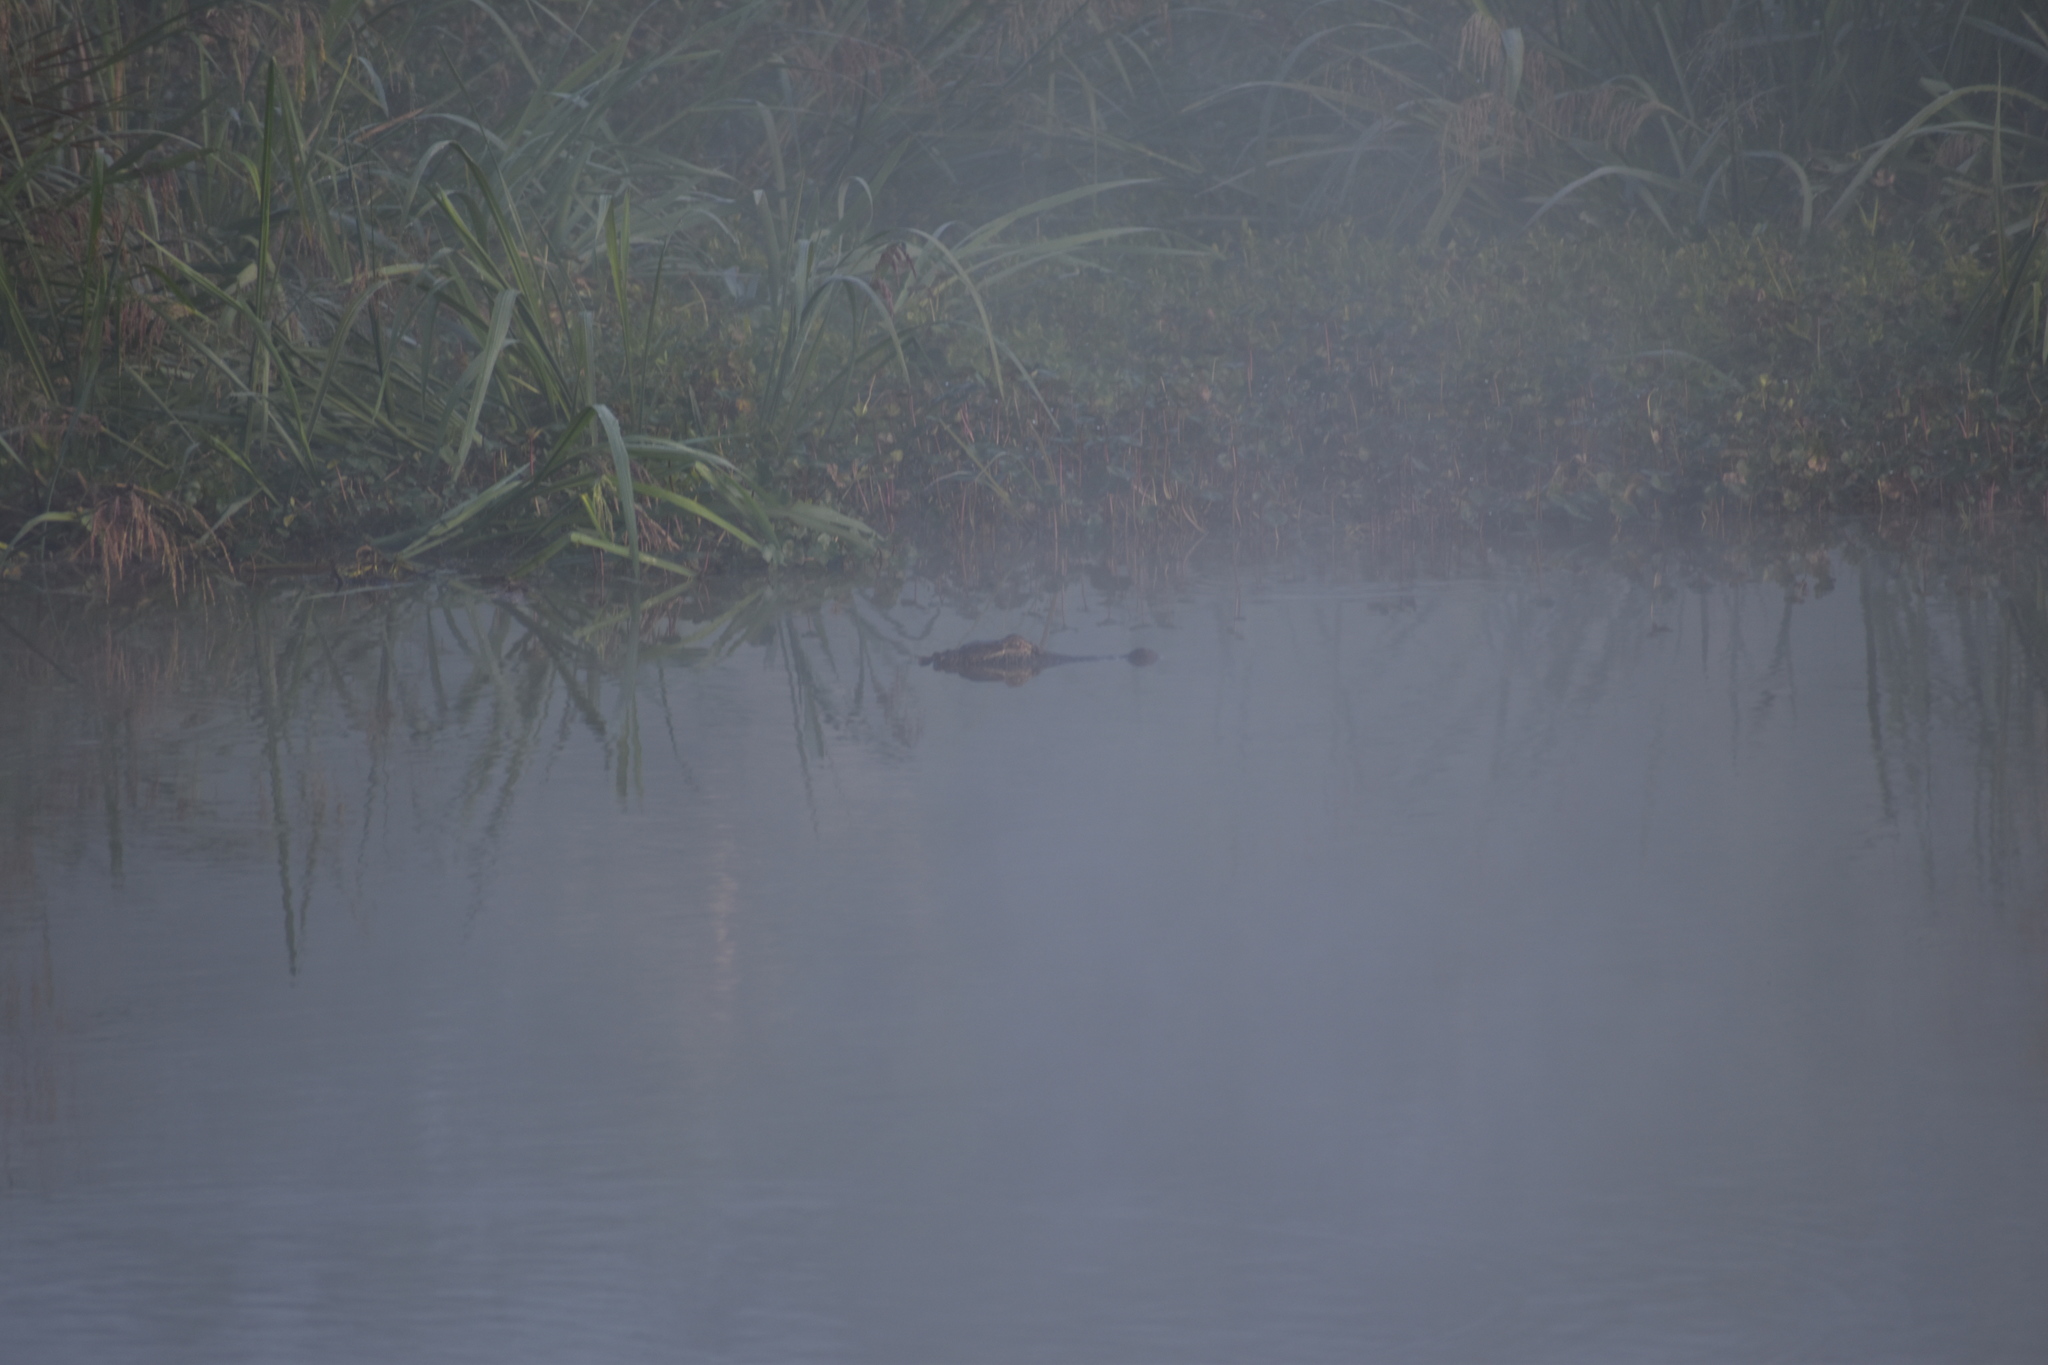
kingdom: Animalia
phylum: Chordata
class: Crocodylia
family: Alligatoridae
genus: Alligator
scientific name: Alligator mississippiensis
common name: American alligator
